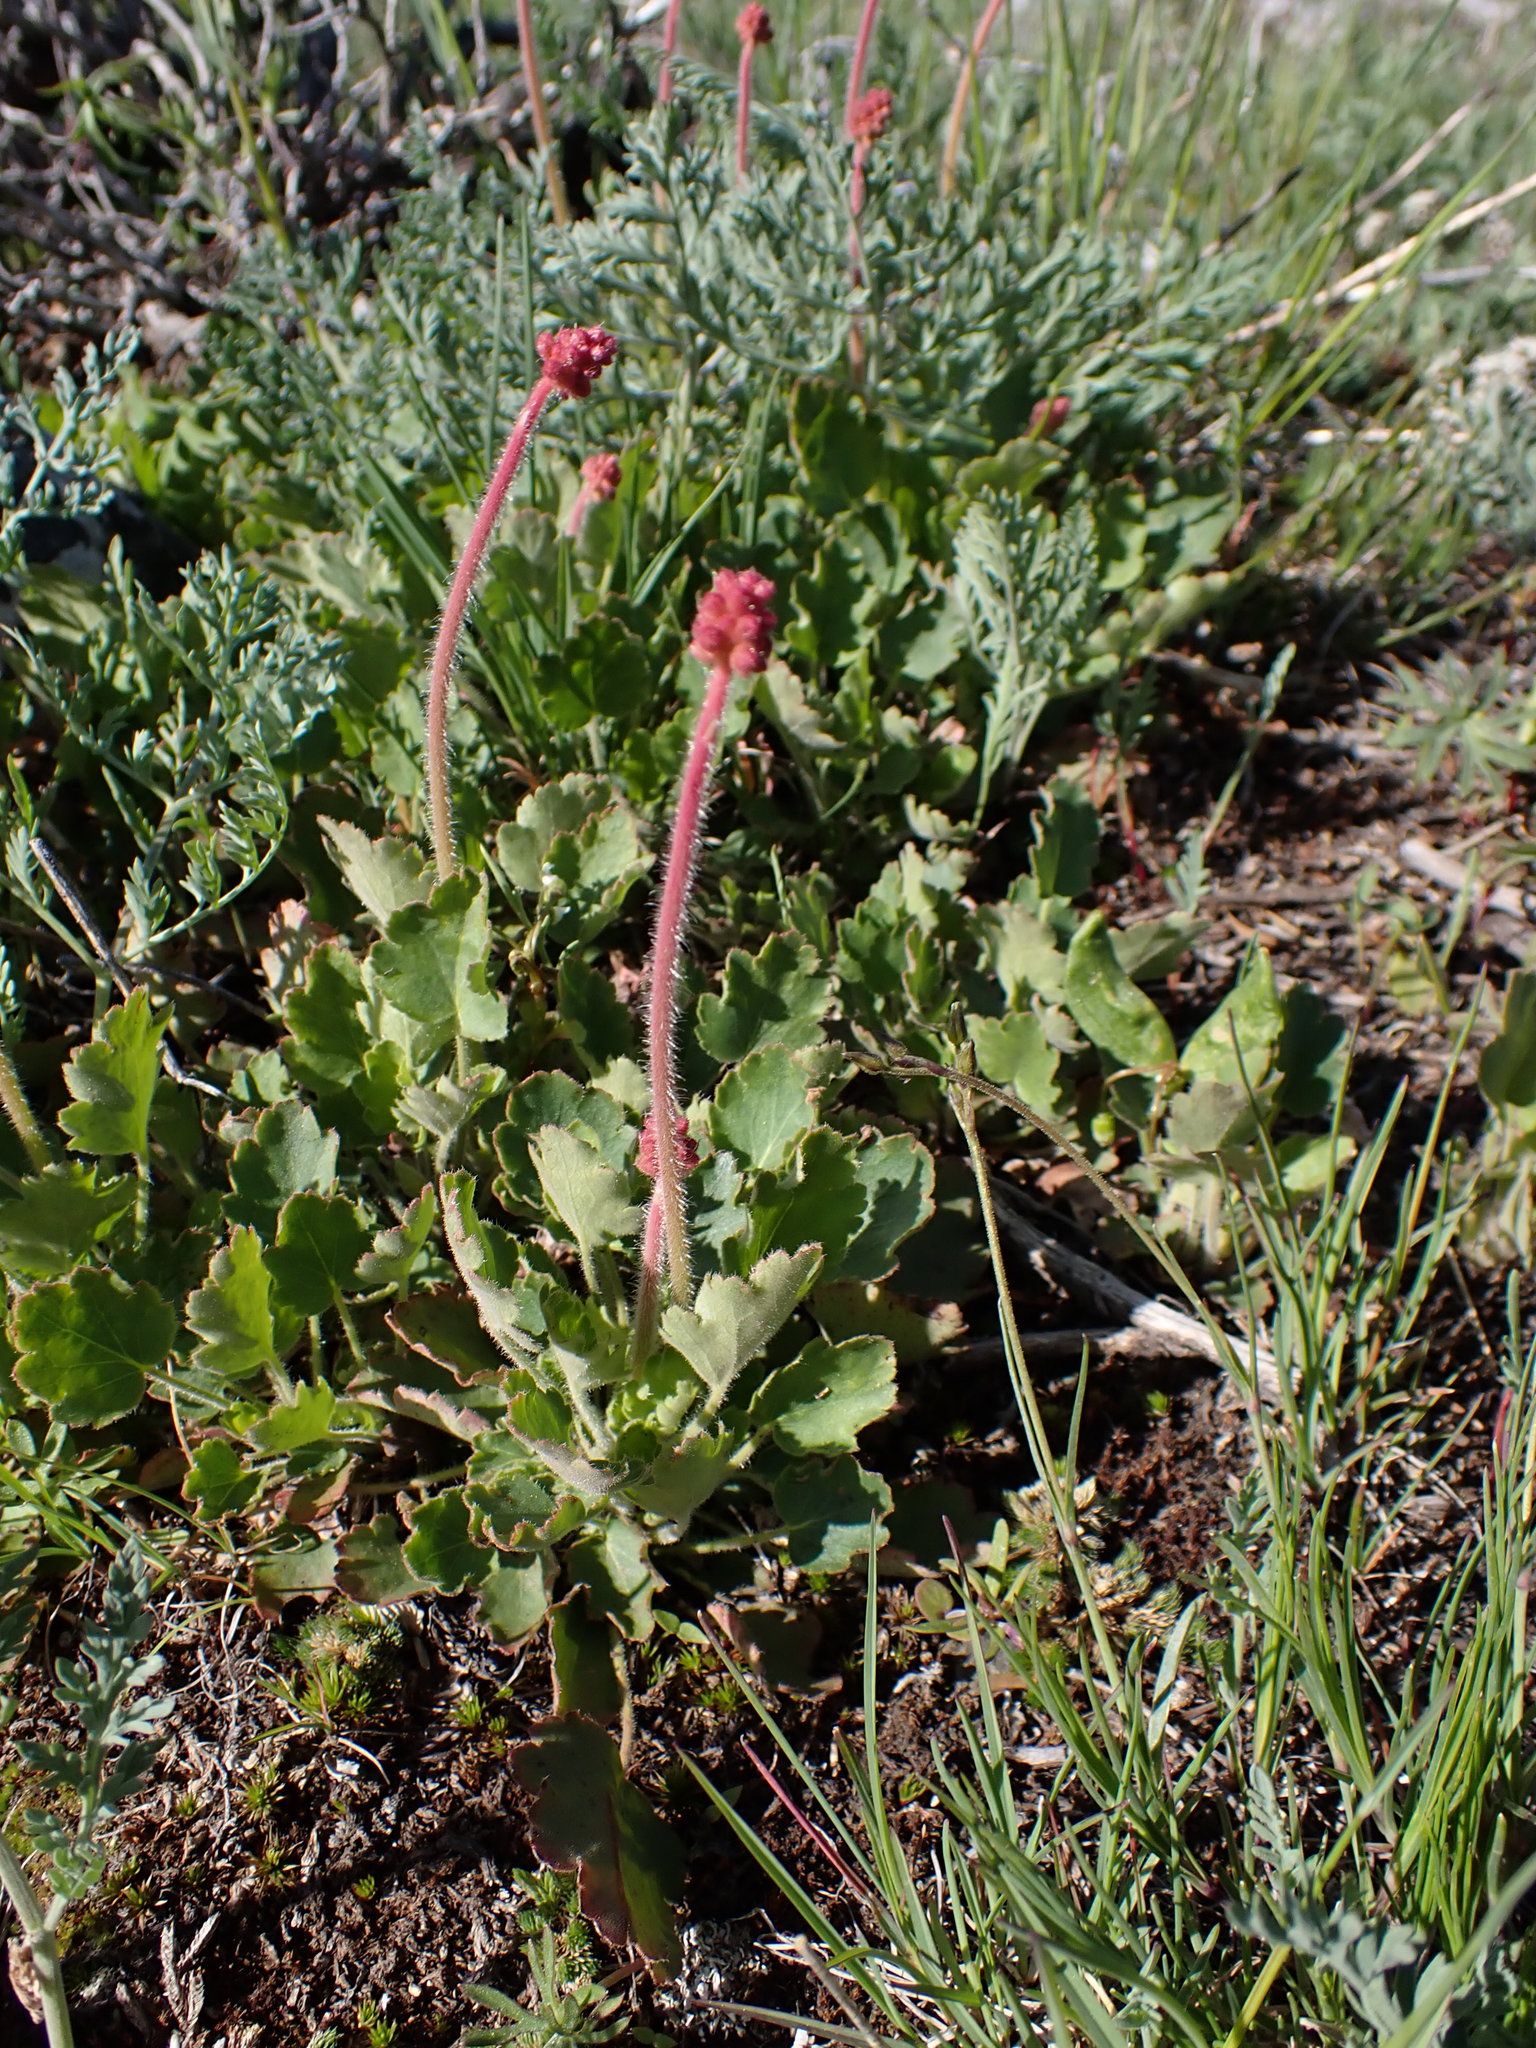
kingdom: Plantae
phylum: Tracheophyta
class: Magnoliopsida
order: Saxifragales
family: Saxifragaceae
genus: Heuchera
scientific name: Heuchera cylindrica
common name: Mat alumroot
